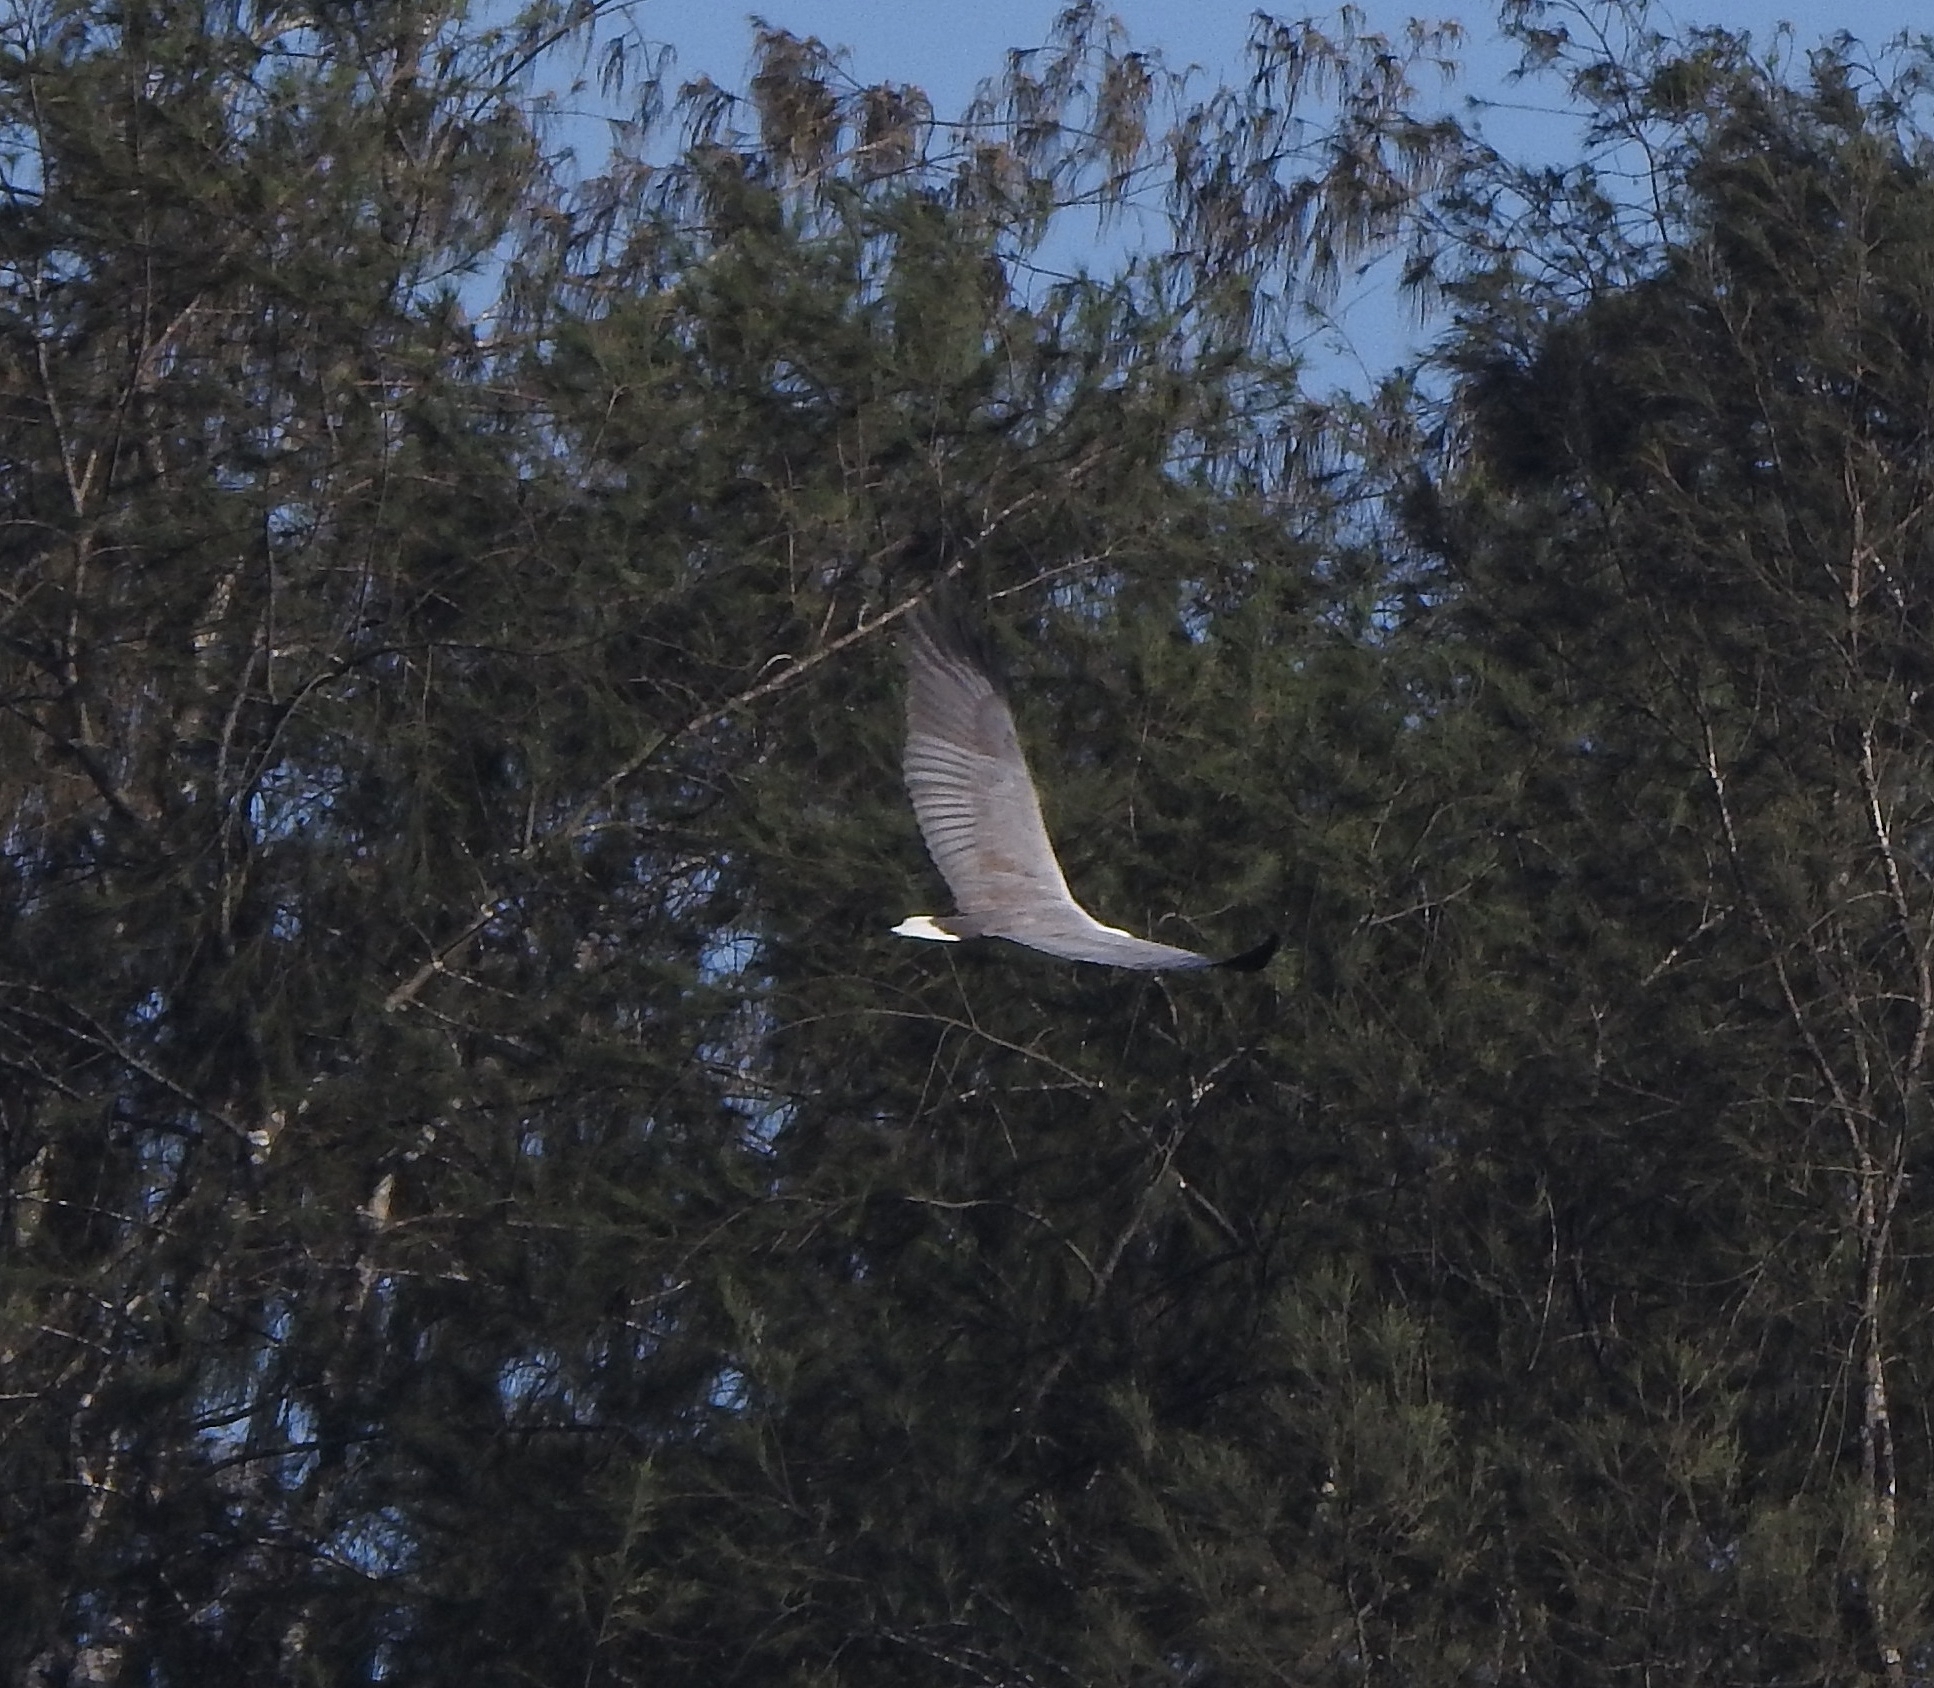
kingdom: Animalia
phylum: Chordata
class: Aves
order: Accipitriformes
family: Accipitridae
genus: Haliaeetus
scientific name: Haliaeetus leucogaster
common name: White-bellied sea eagle
